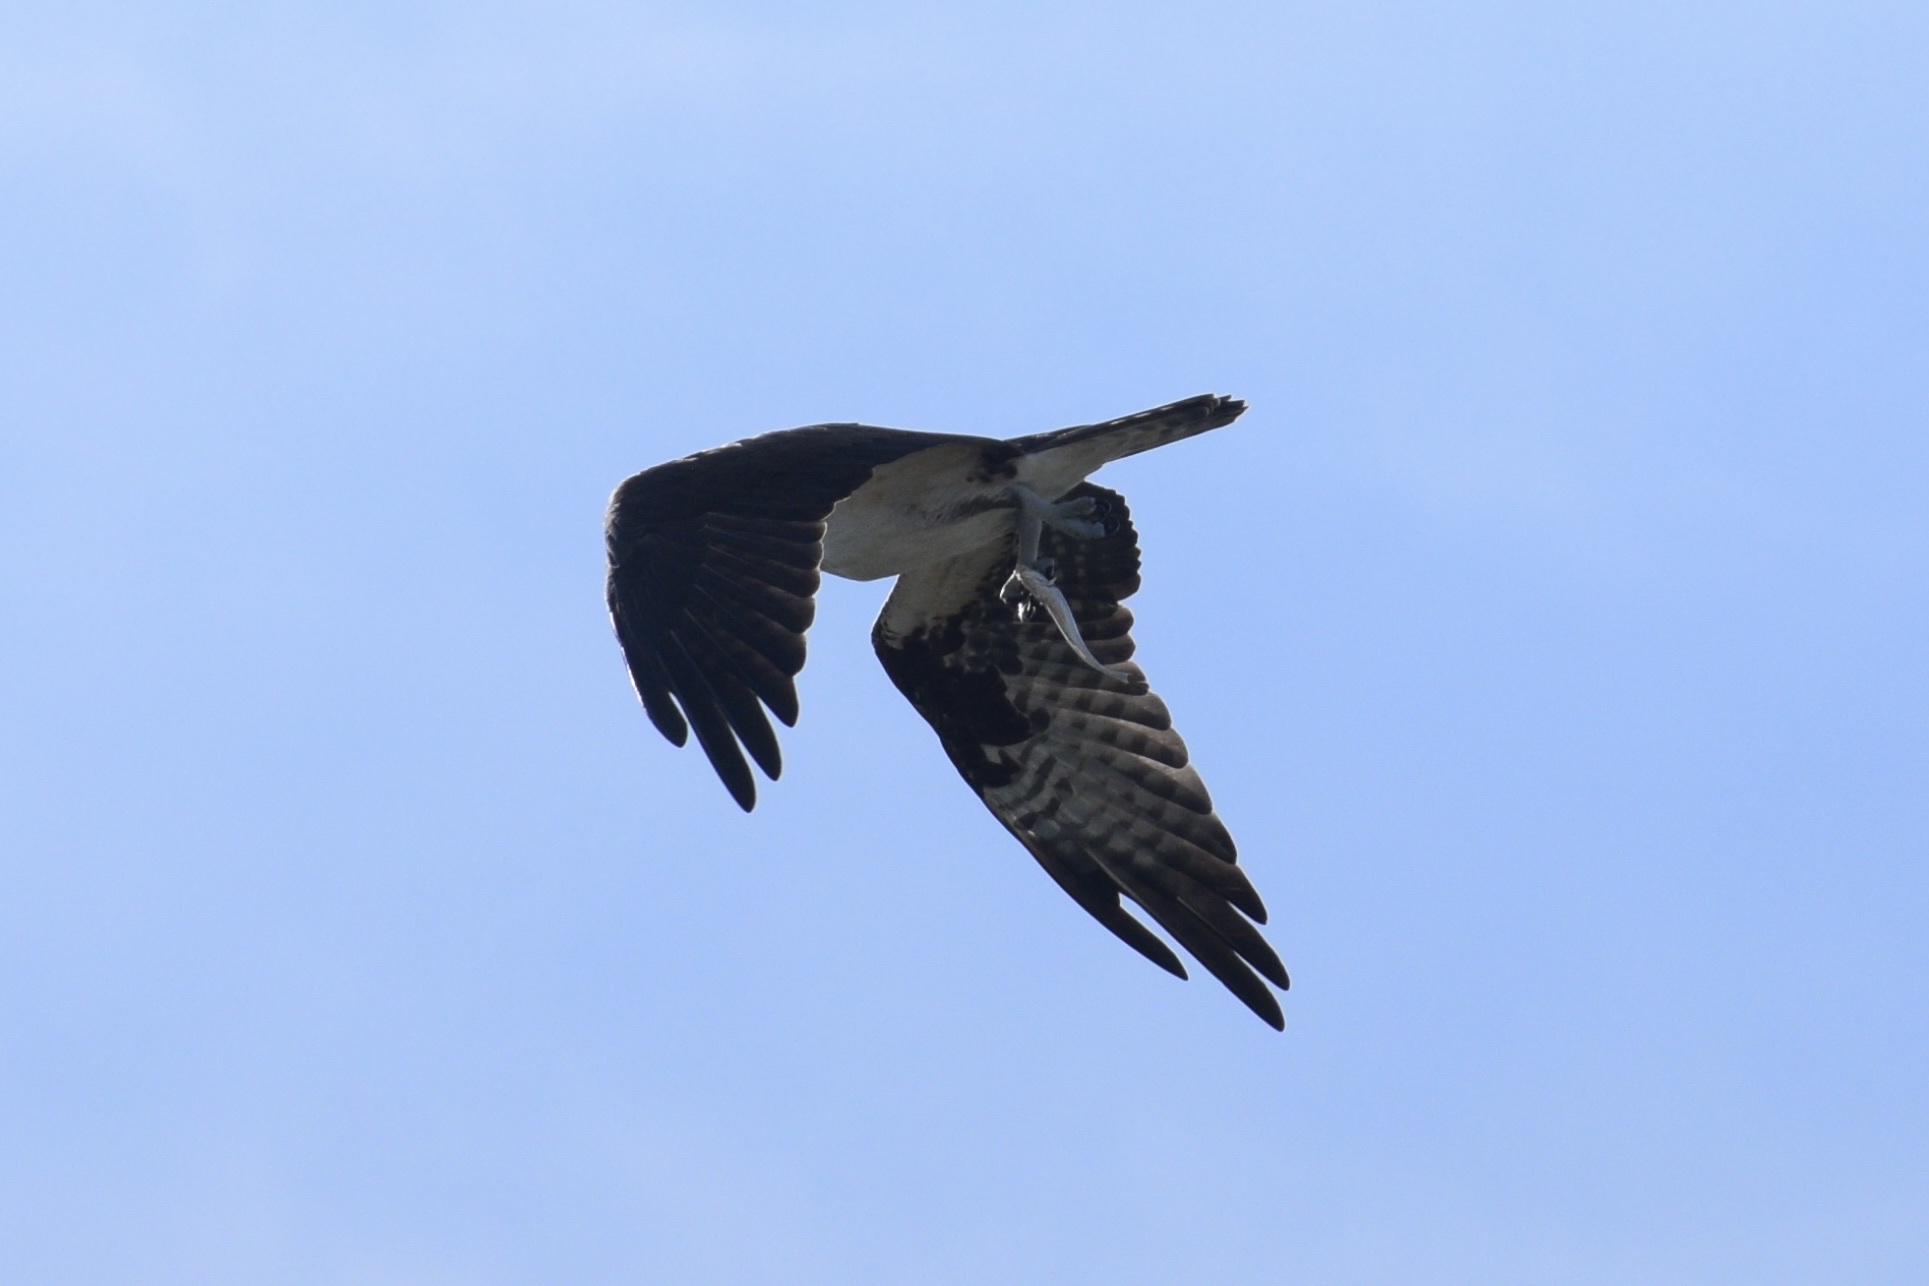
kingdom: Animalia
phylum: Chordata
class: Aves
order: Accipitriformes
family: Pandionidae
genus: Pandion
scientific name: Pandion haliaetus
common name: Osprey
